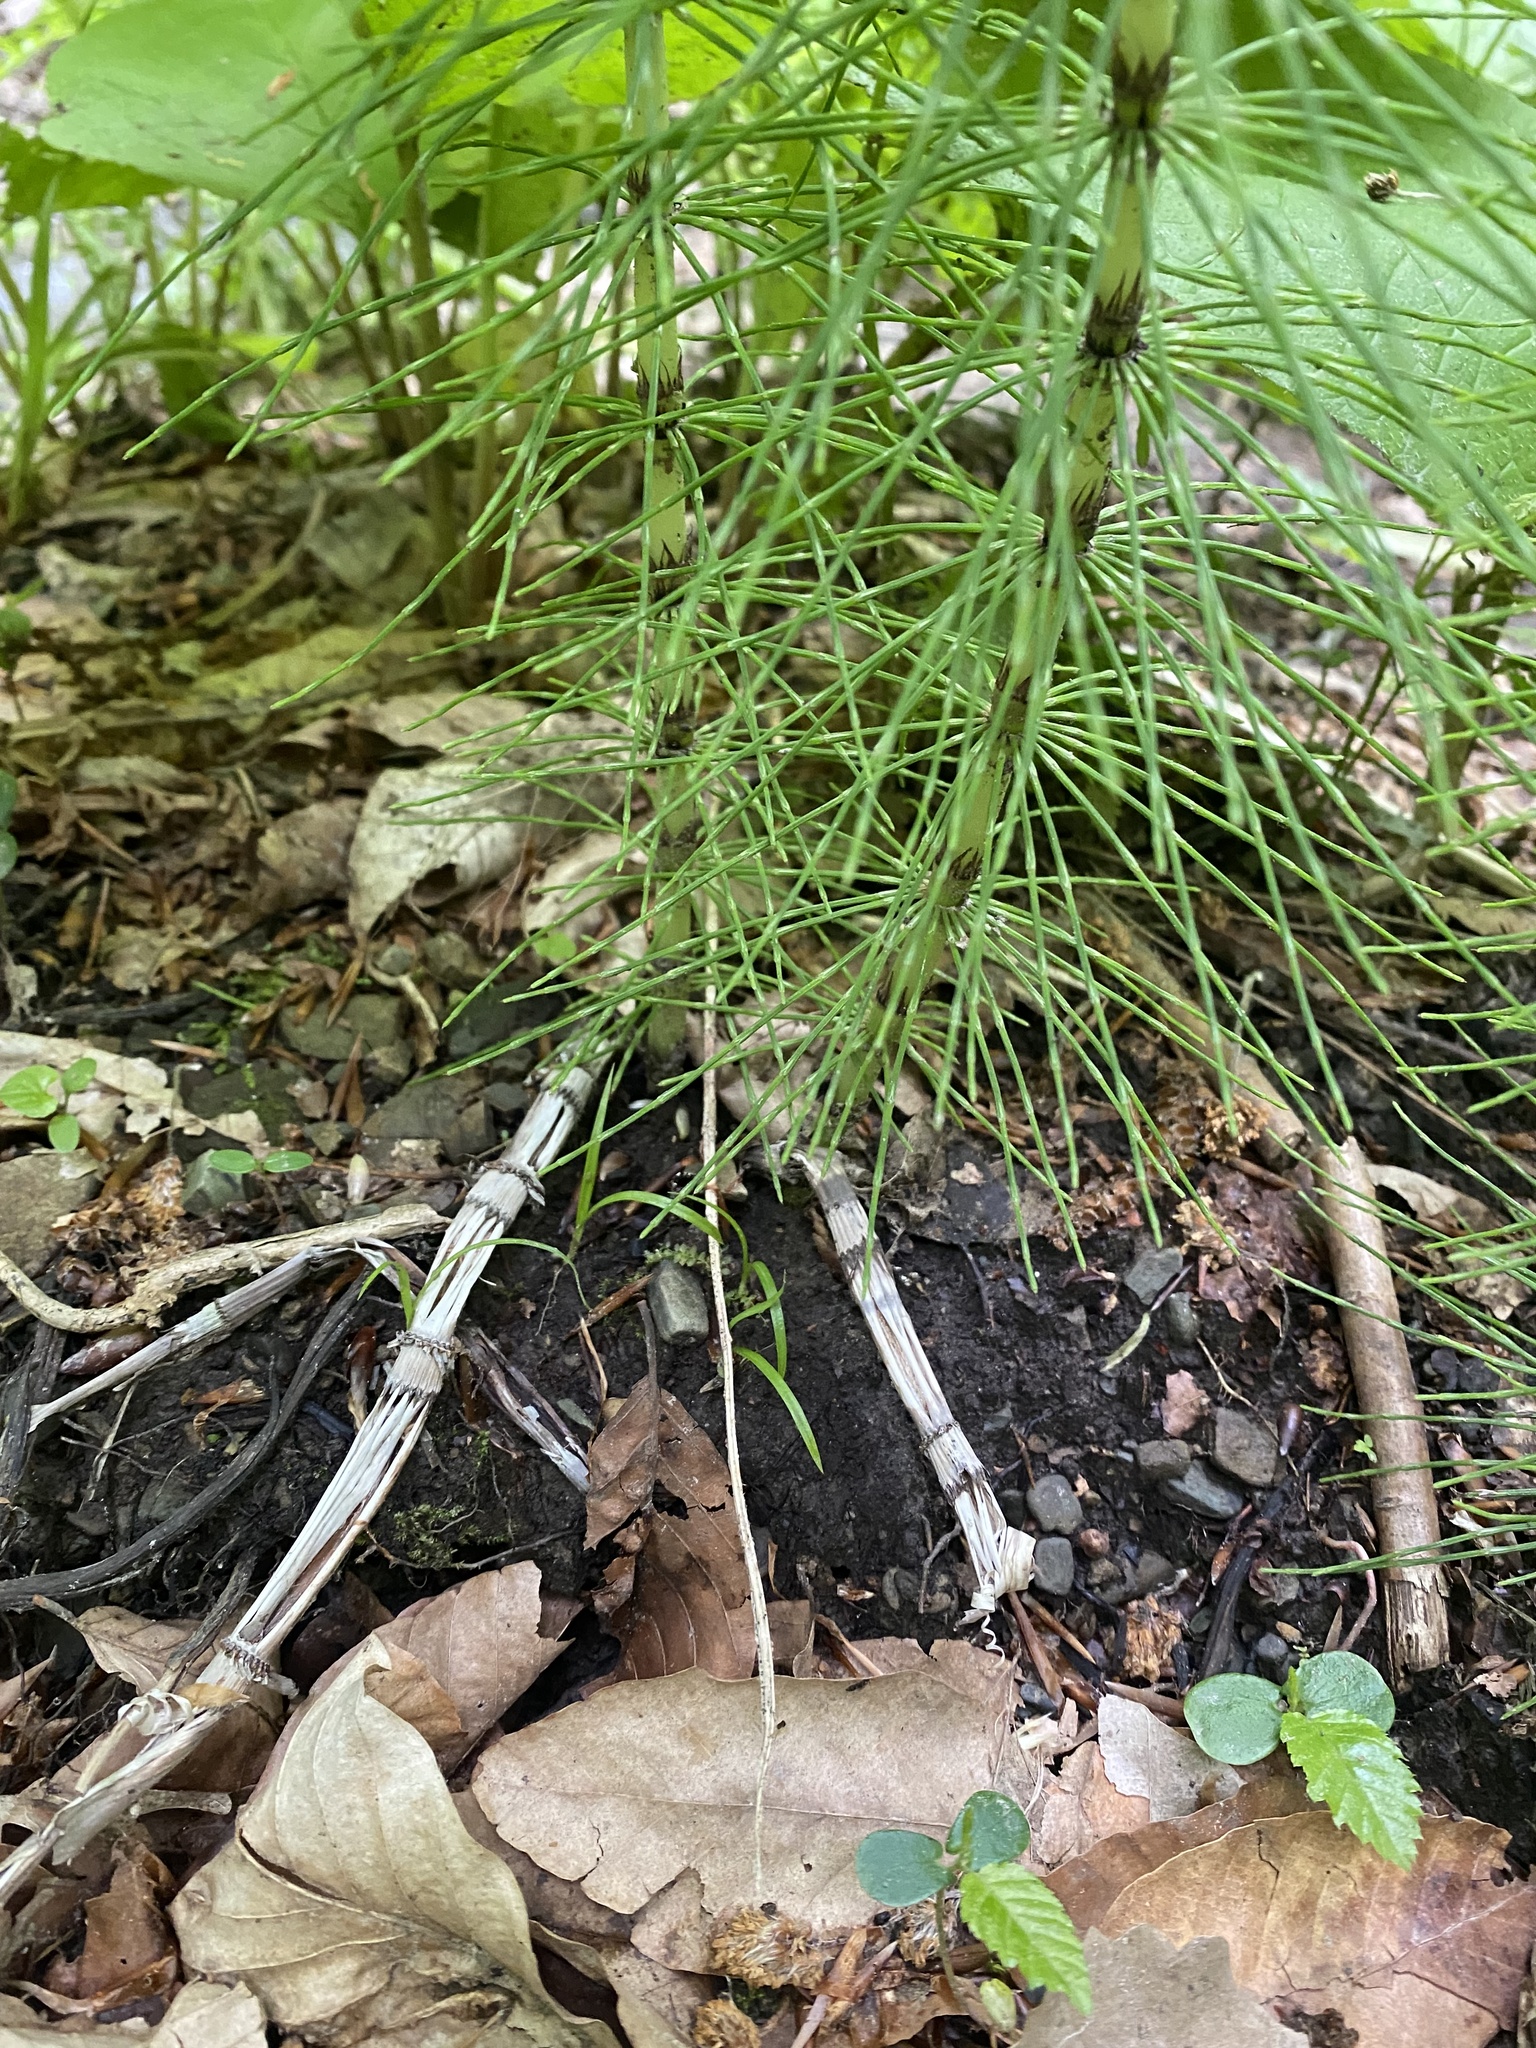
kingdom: Plantae
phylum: Tracheophyta
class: Polypodiopsida
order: Equisetales
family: Equisetaceae
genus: Equisetum
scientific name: Equisetum telmateia
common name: Great horsetail
